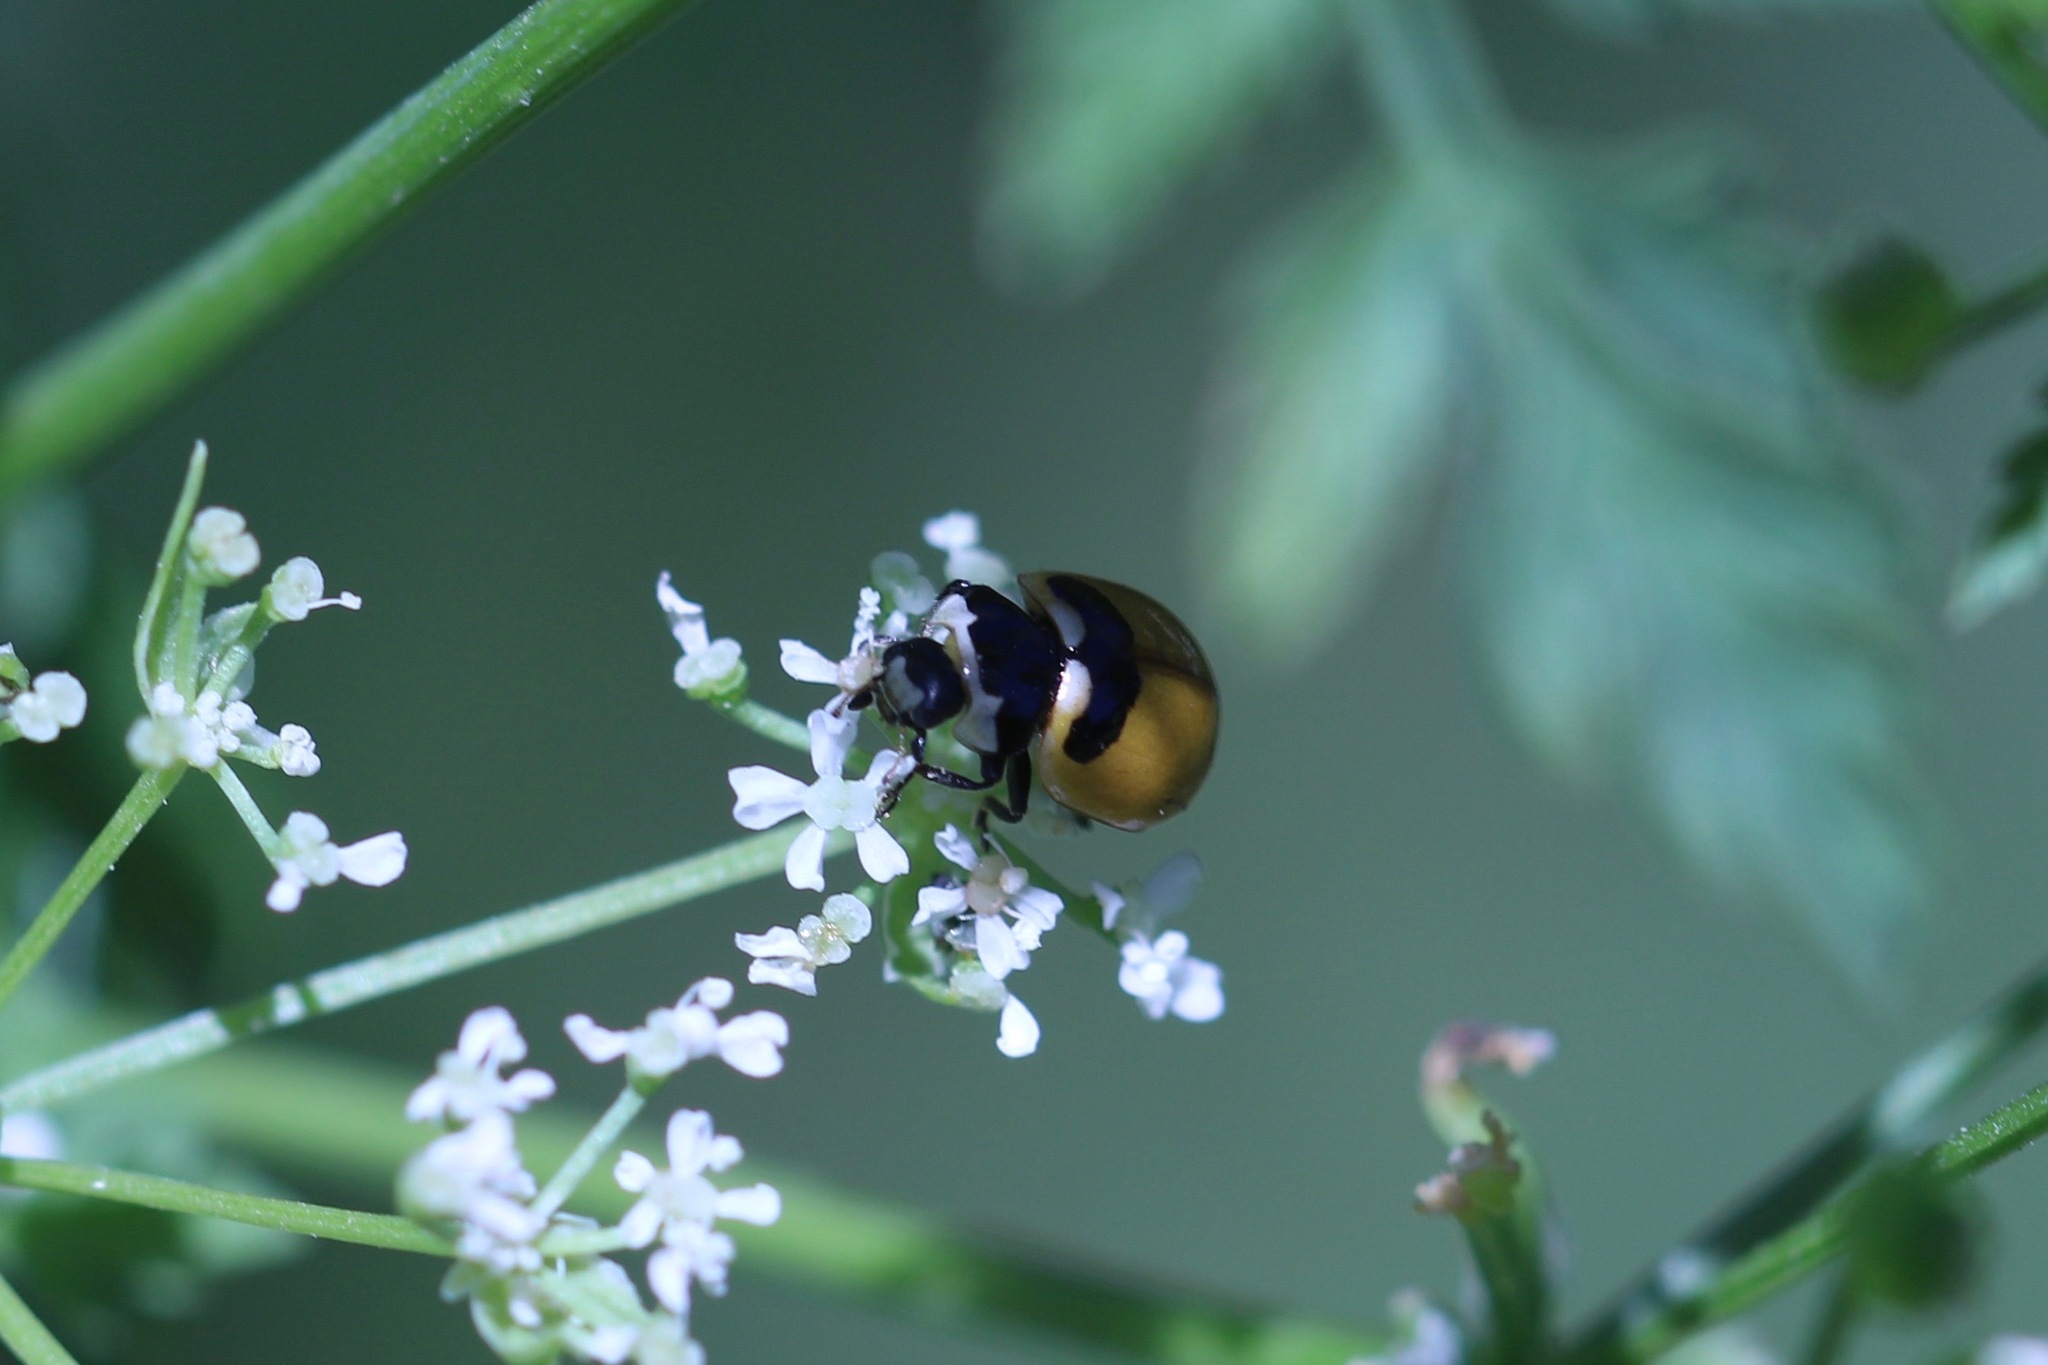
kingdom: Animalia
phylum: Arthropoda
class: Insecta
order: Coleoptera
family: Coccinellidae
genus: Coccinella
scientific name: Coccinella trifasciata
